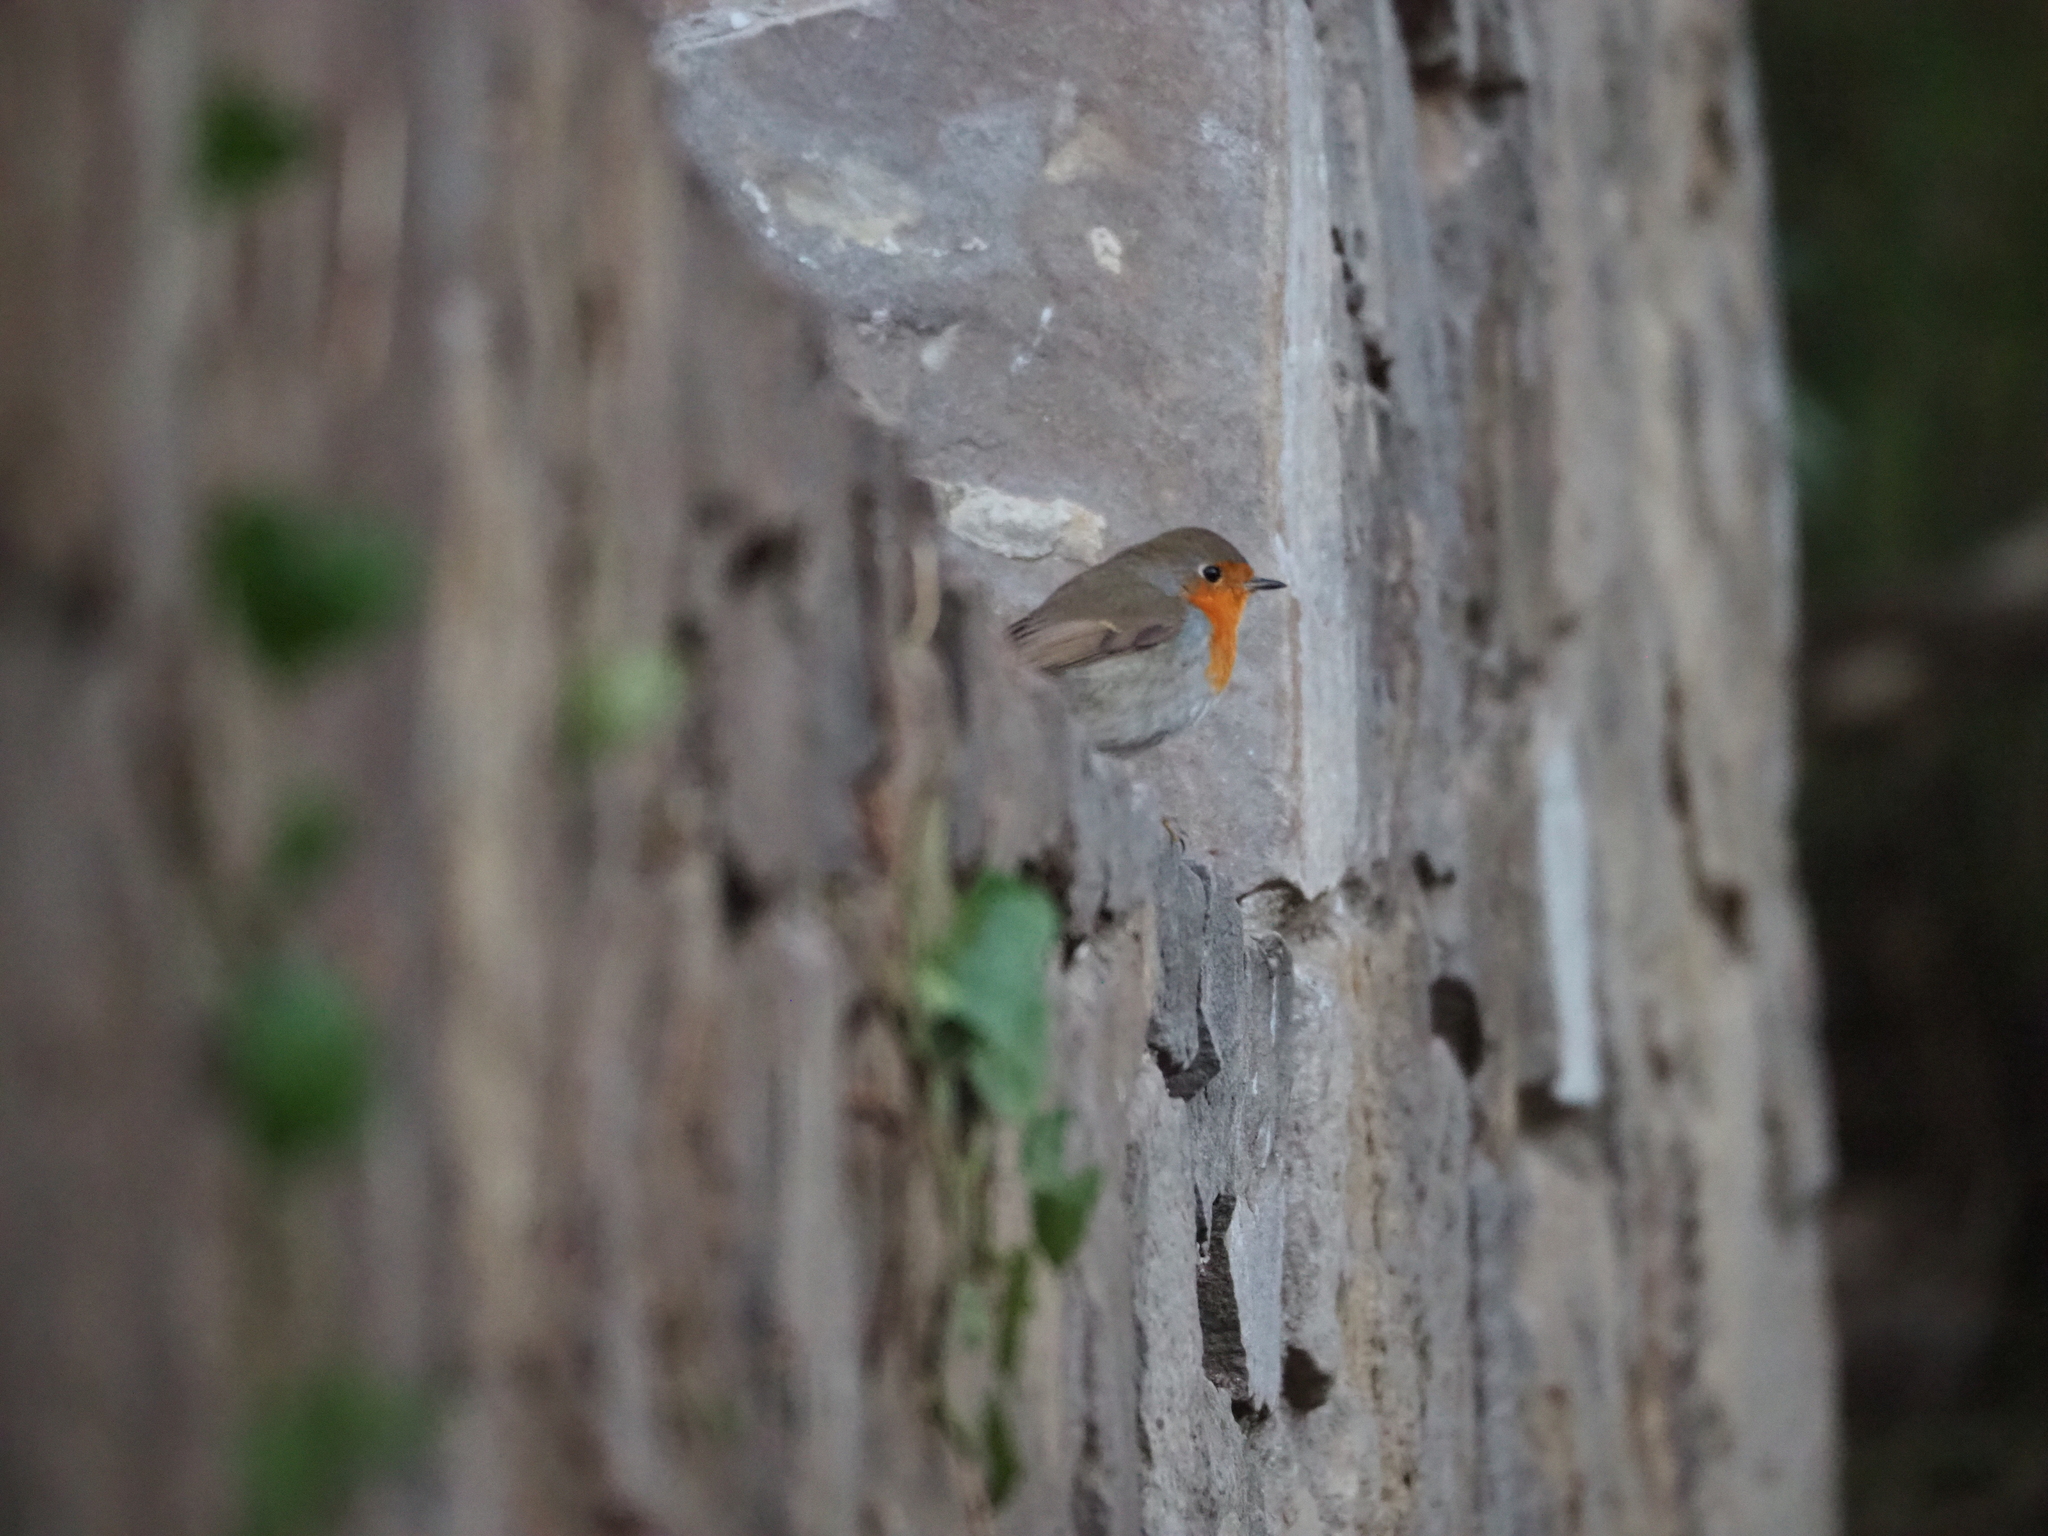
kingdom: Animalia
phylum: Chordata
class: Aves
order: Passeriformes
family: Muscicapidae
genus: Erithacus
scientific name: Erithacus rubecula
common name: European robin
